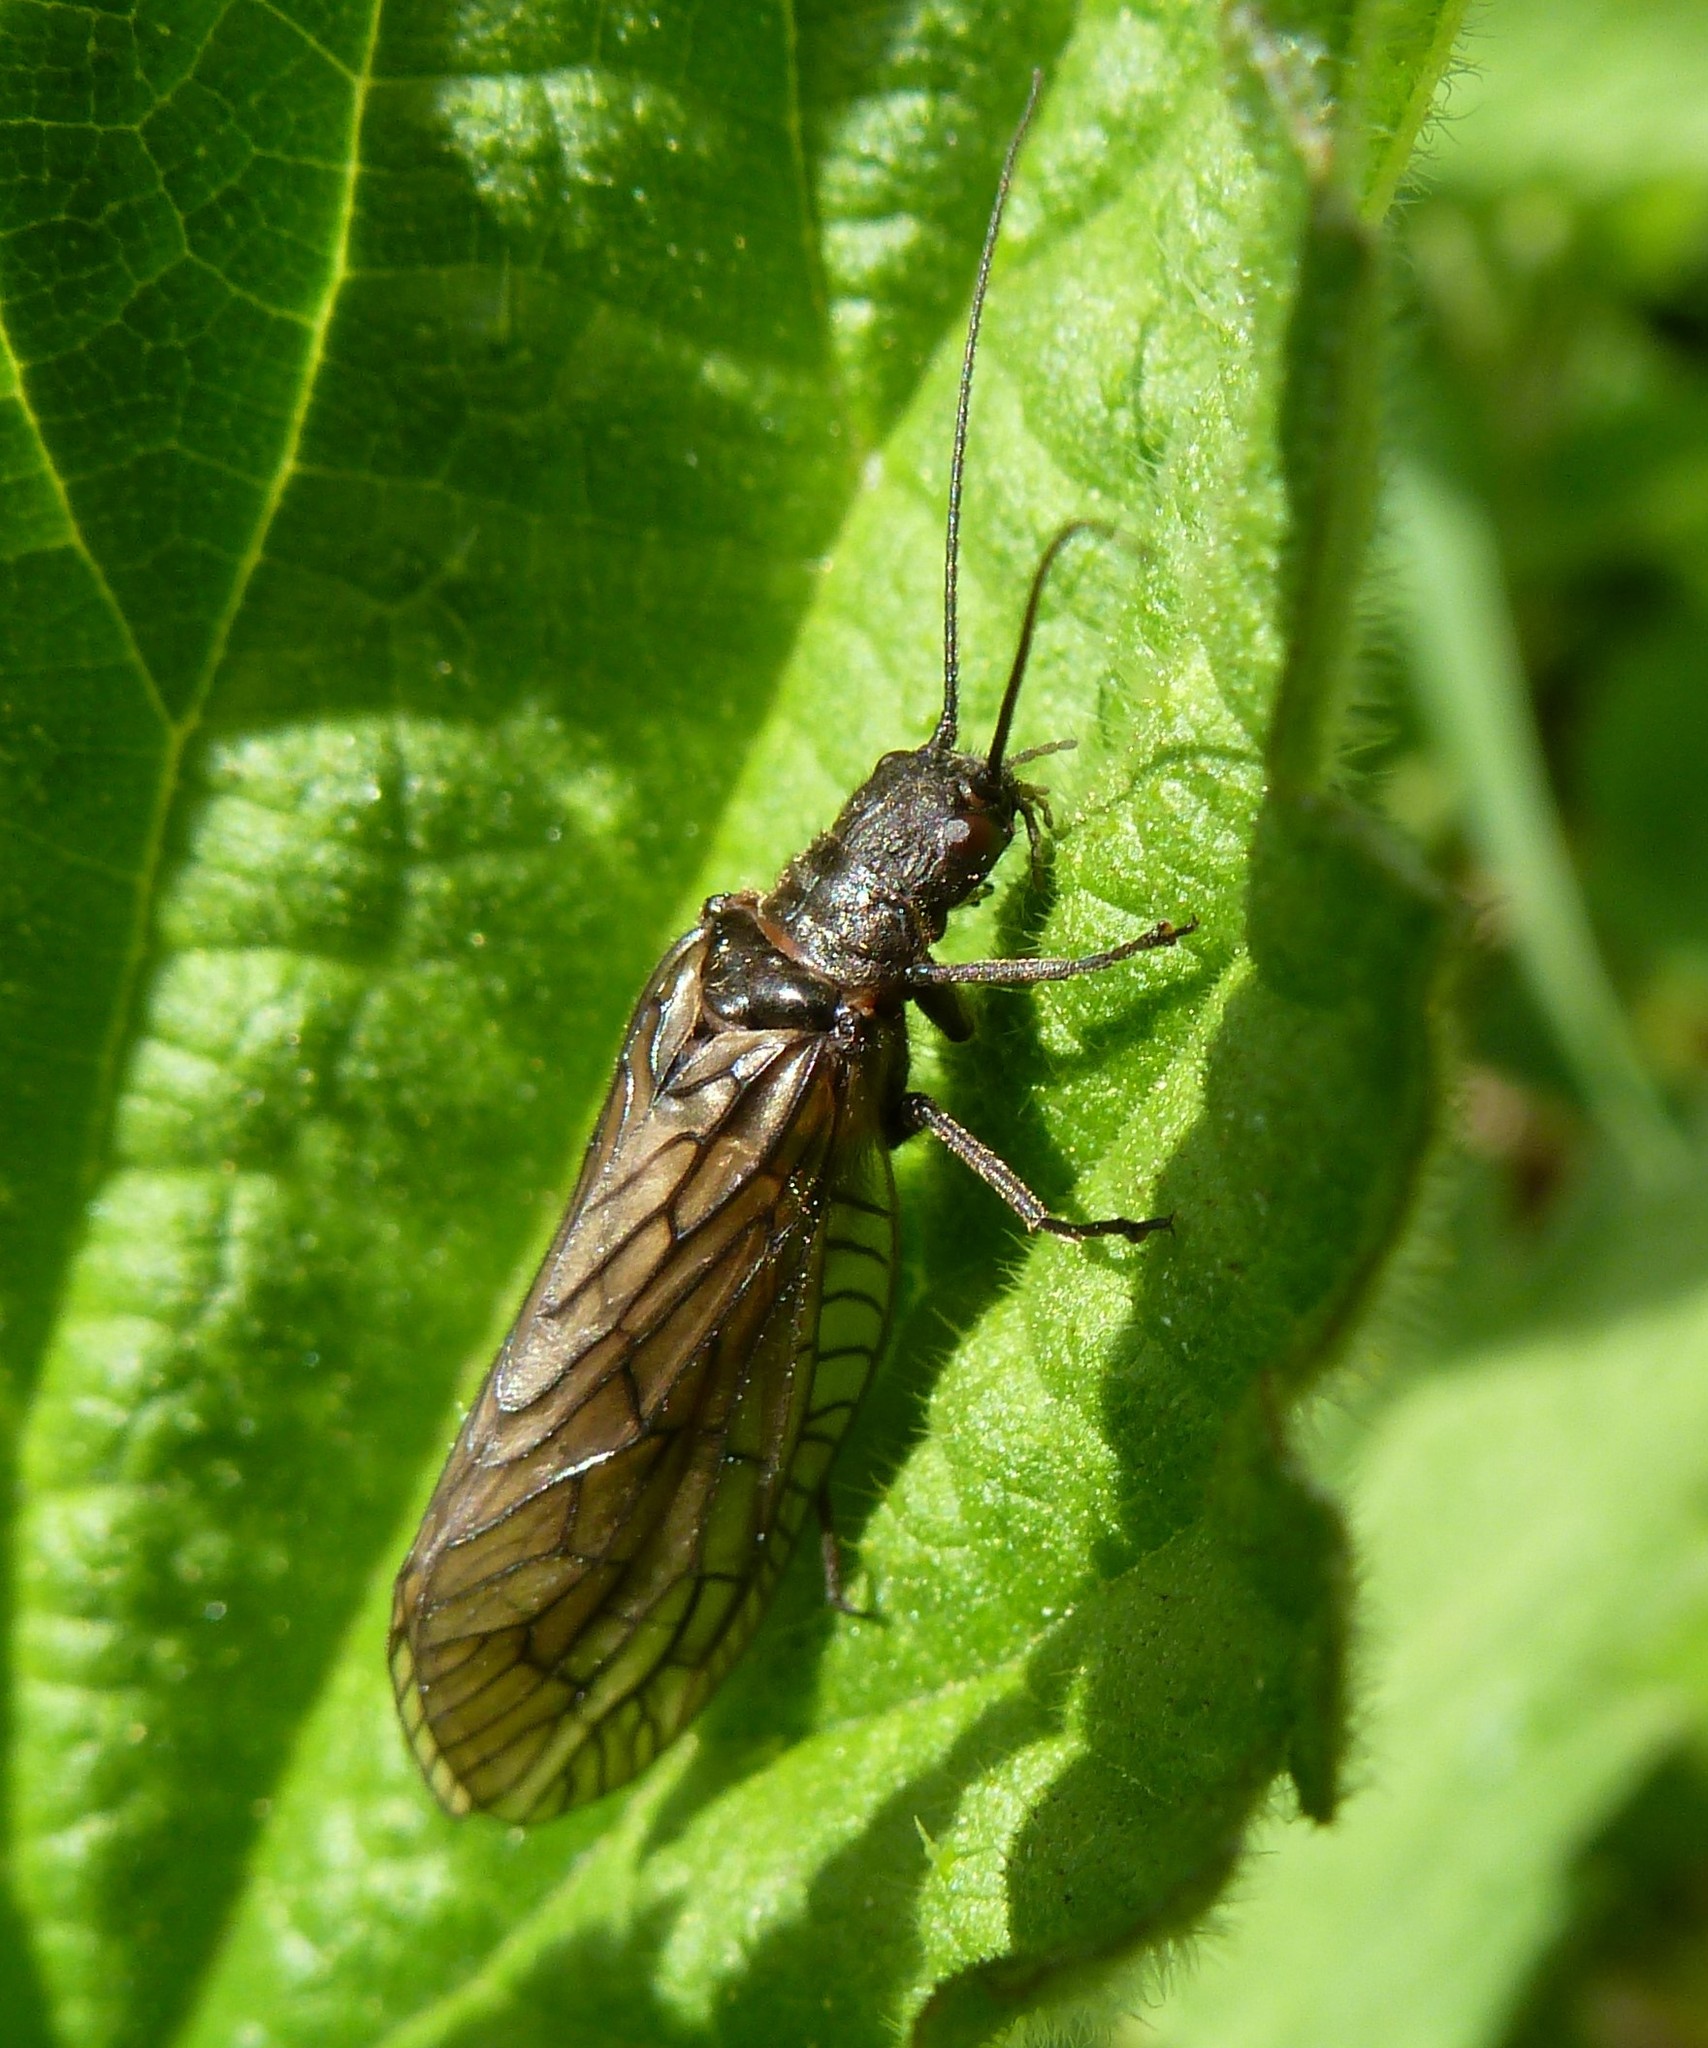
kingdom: Animalia
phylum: Arthropoda
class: Insecta
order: Megaloptera
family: Sialidae
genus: Sialis
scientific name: Sialis
